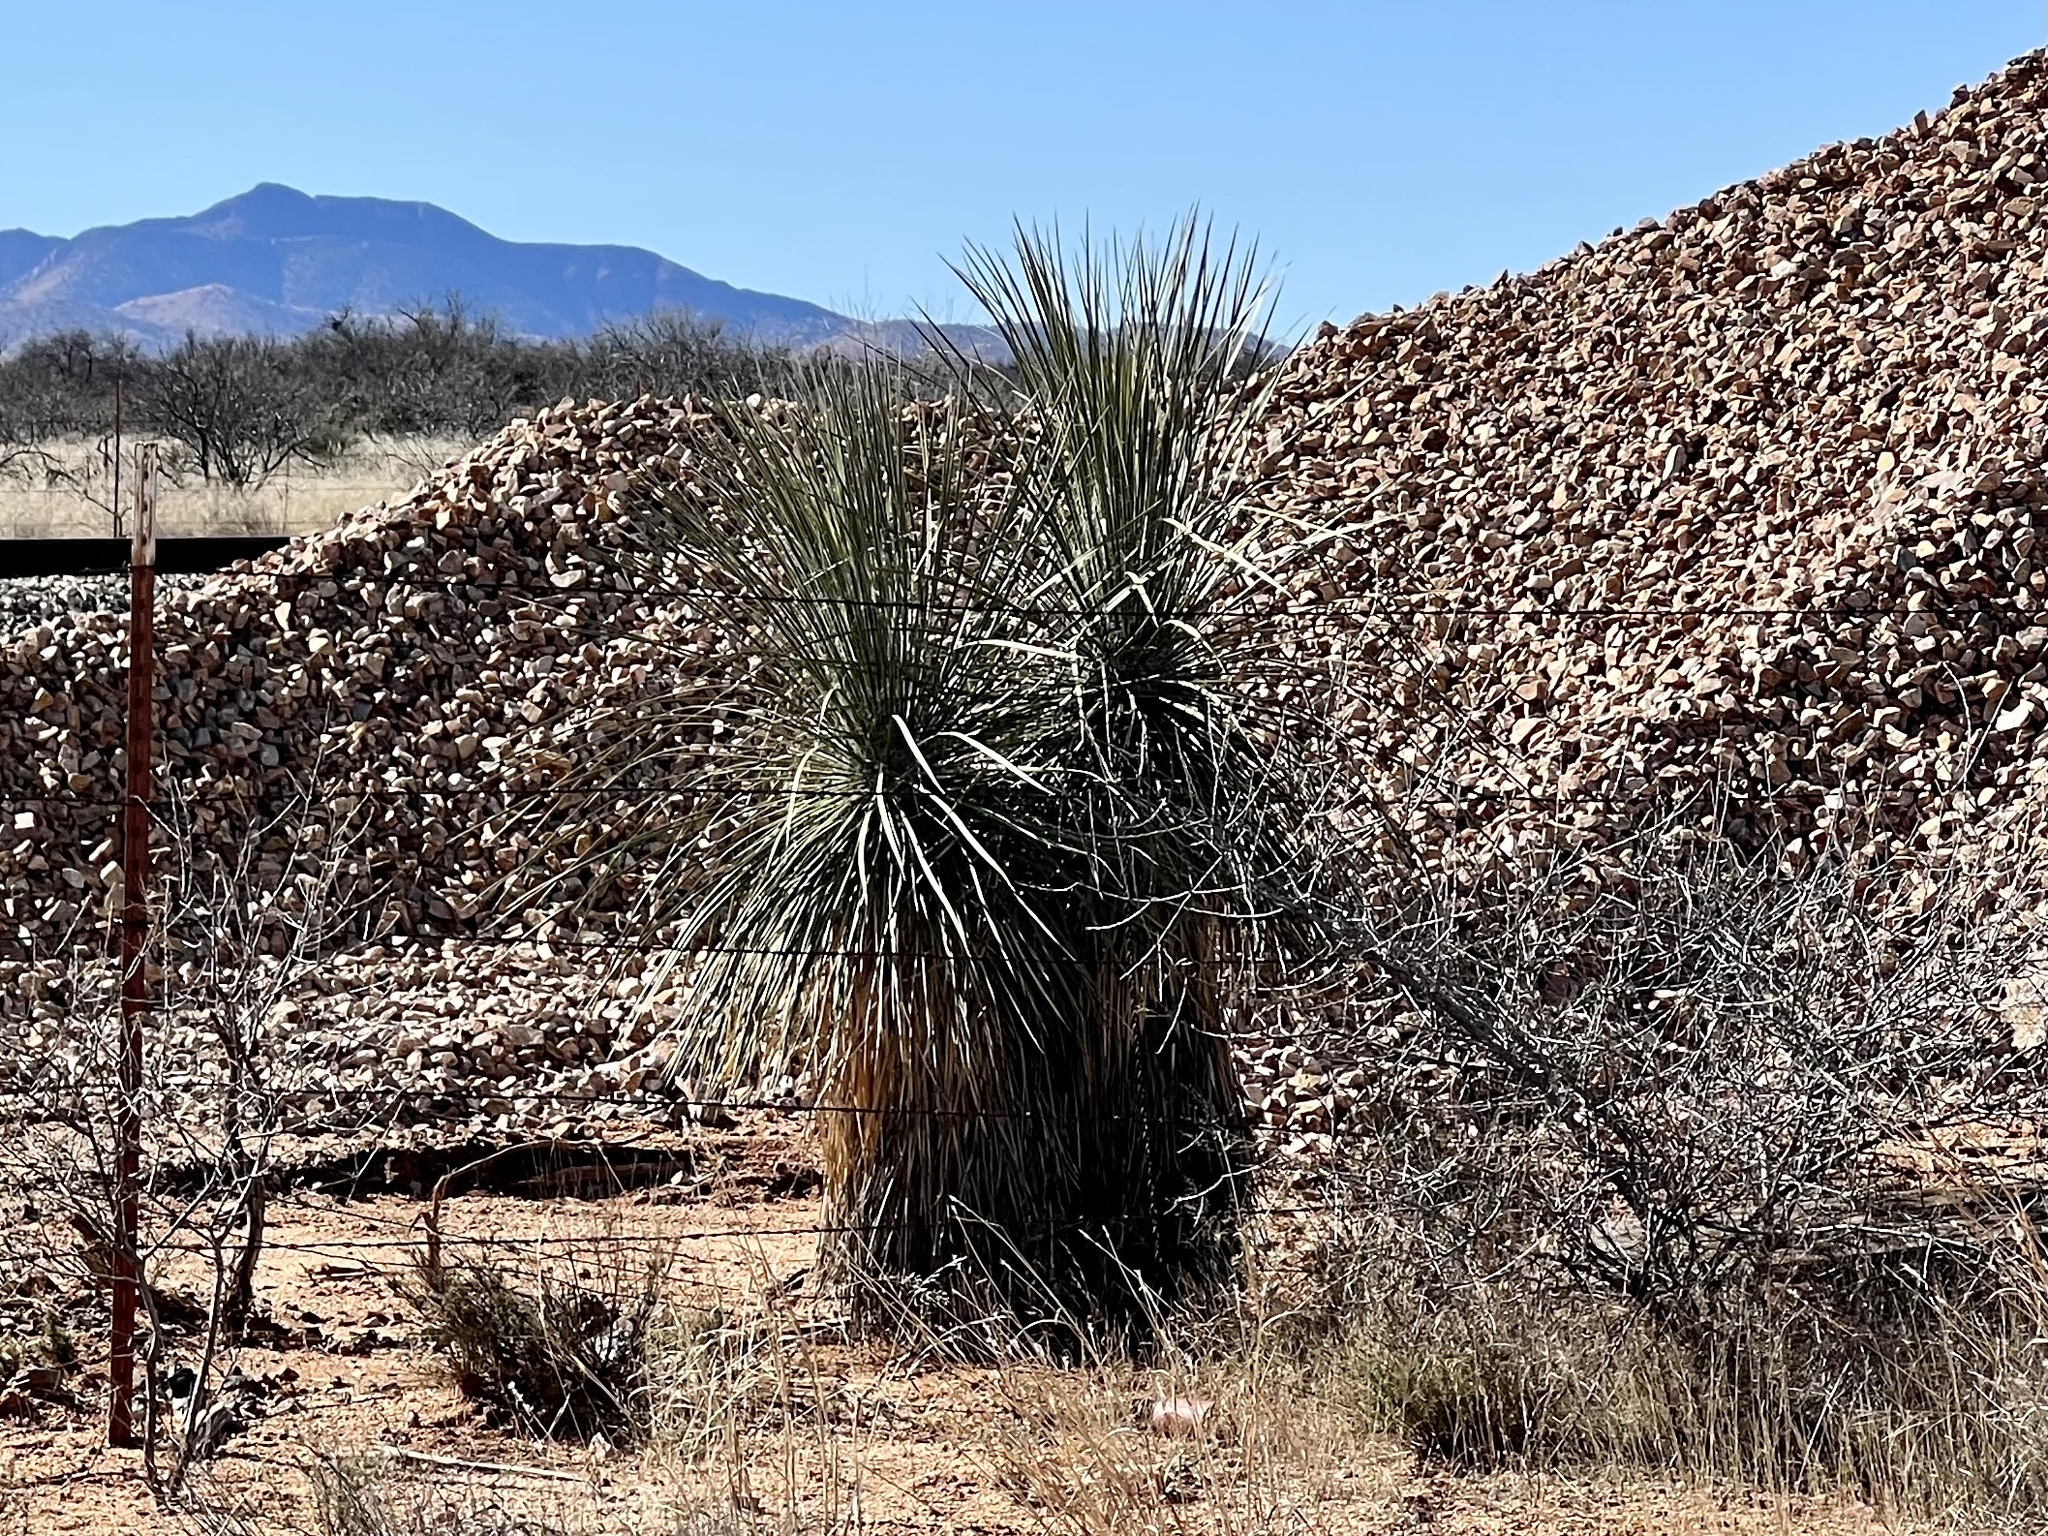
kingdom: Plantae
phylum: Tracheophyta
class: Liliopsida
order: Asparagales
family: Asparagaceae
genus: Yucca
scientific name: Yucca elata
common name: Palmella
